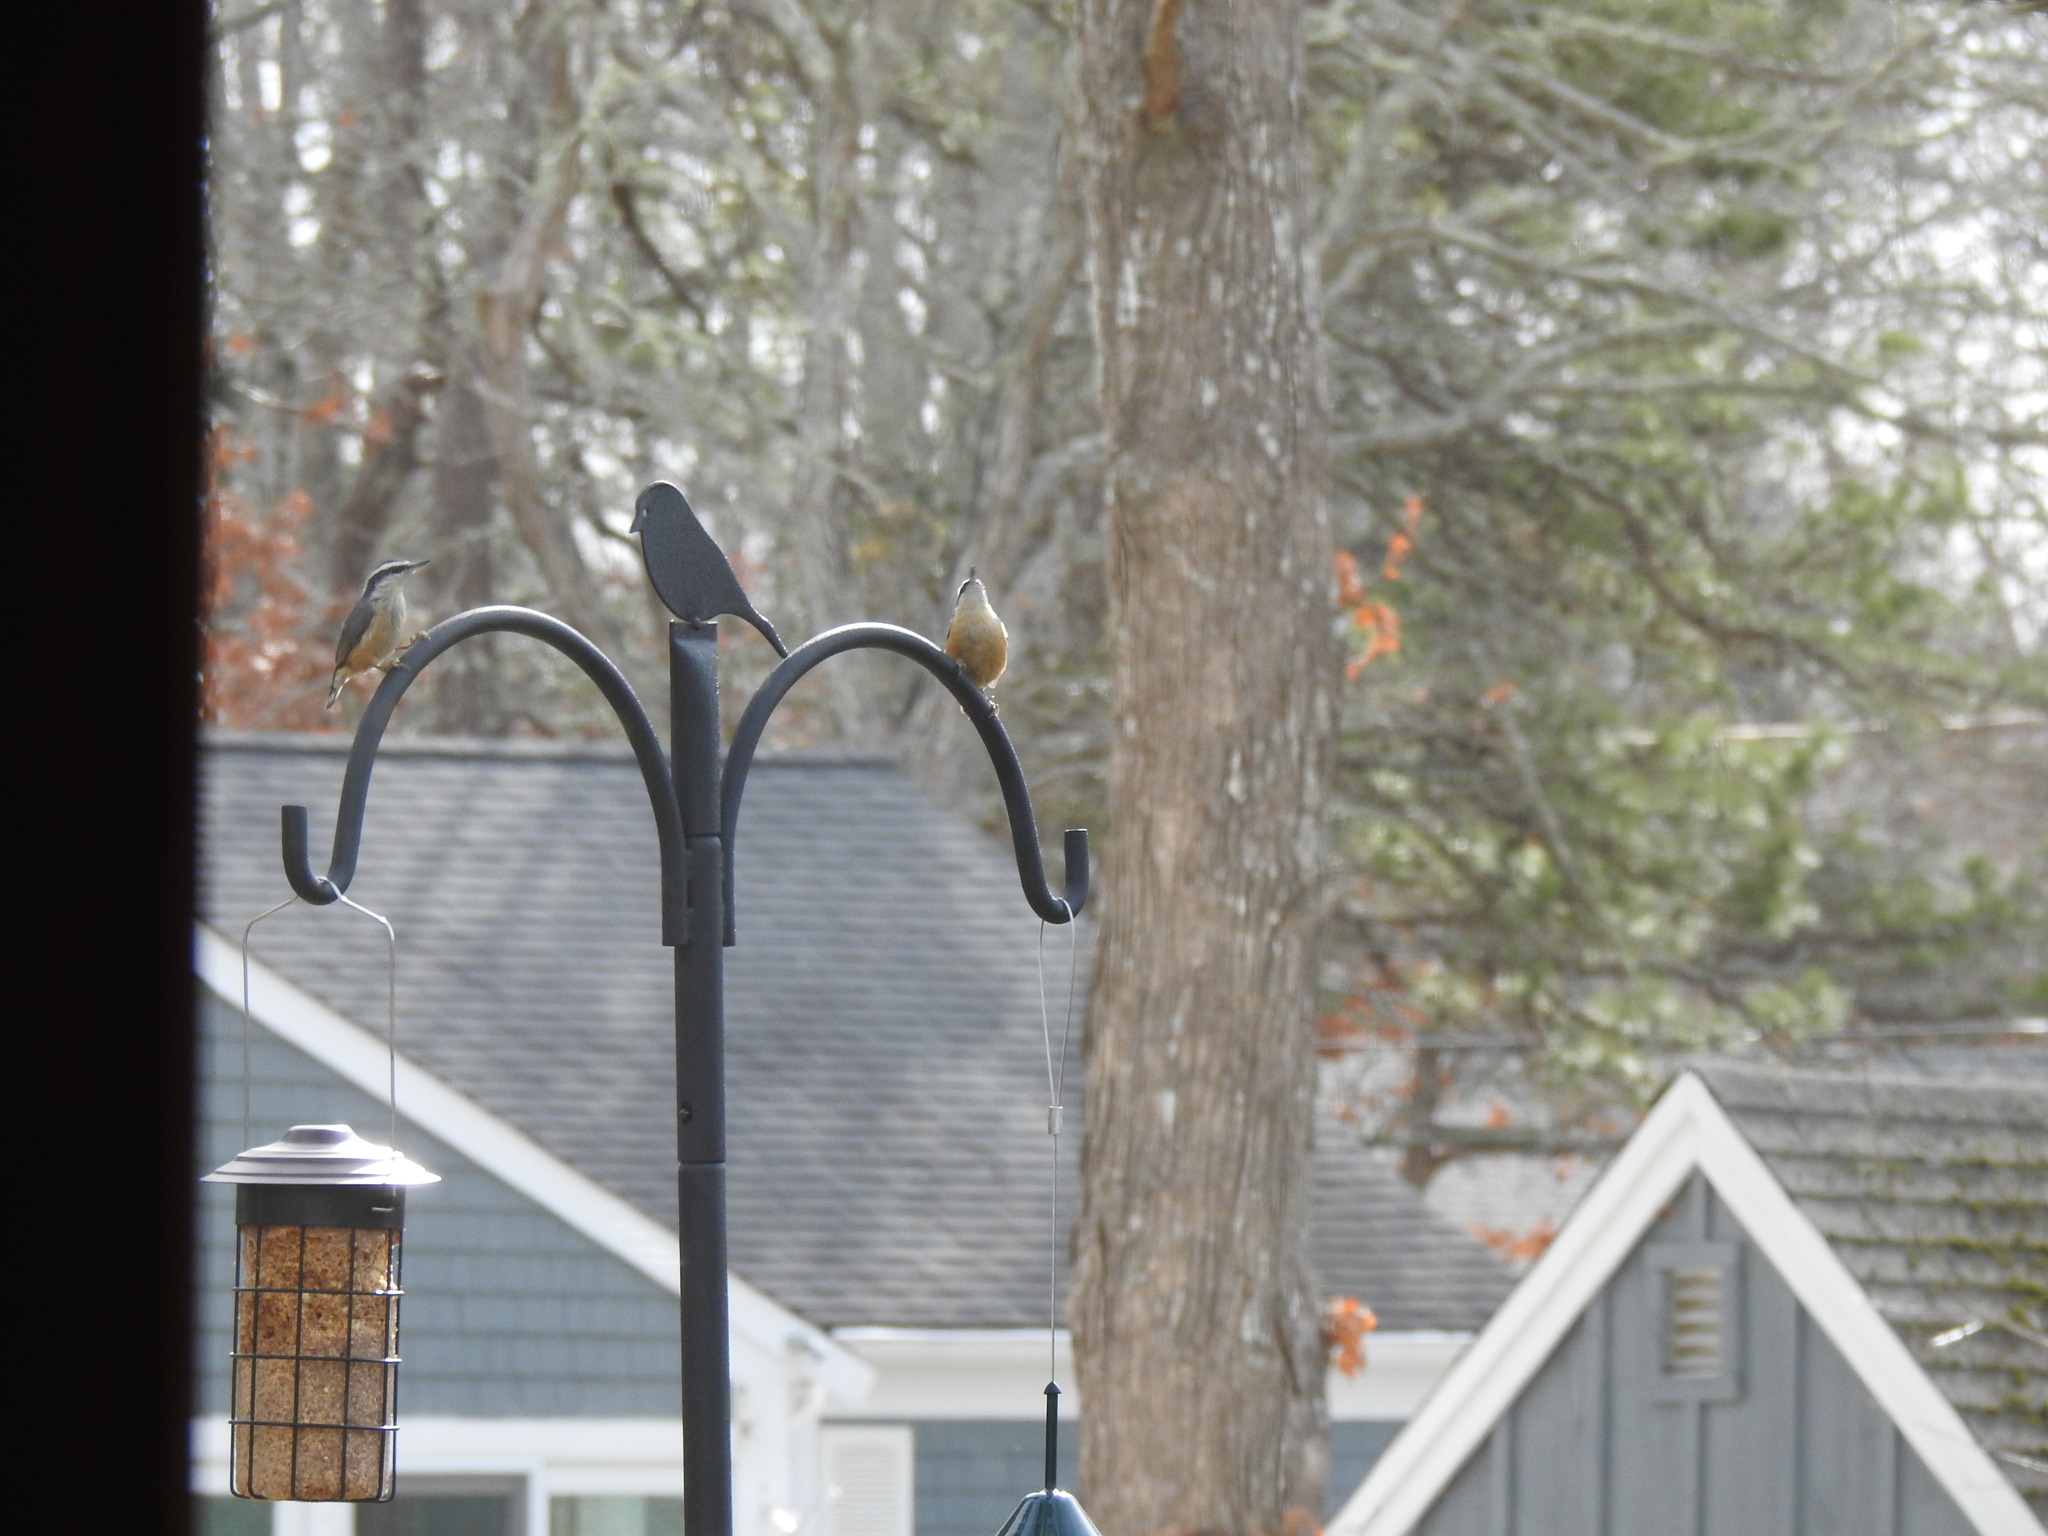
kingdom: Animalia
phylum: Chordata
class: Aves
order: Passeriformes
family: Sittidae
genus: Sitta
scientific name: Sitta canadensis
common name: Red-breasted nuthatch
